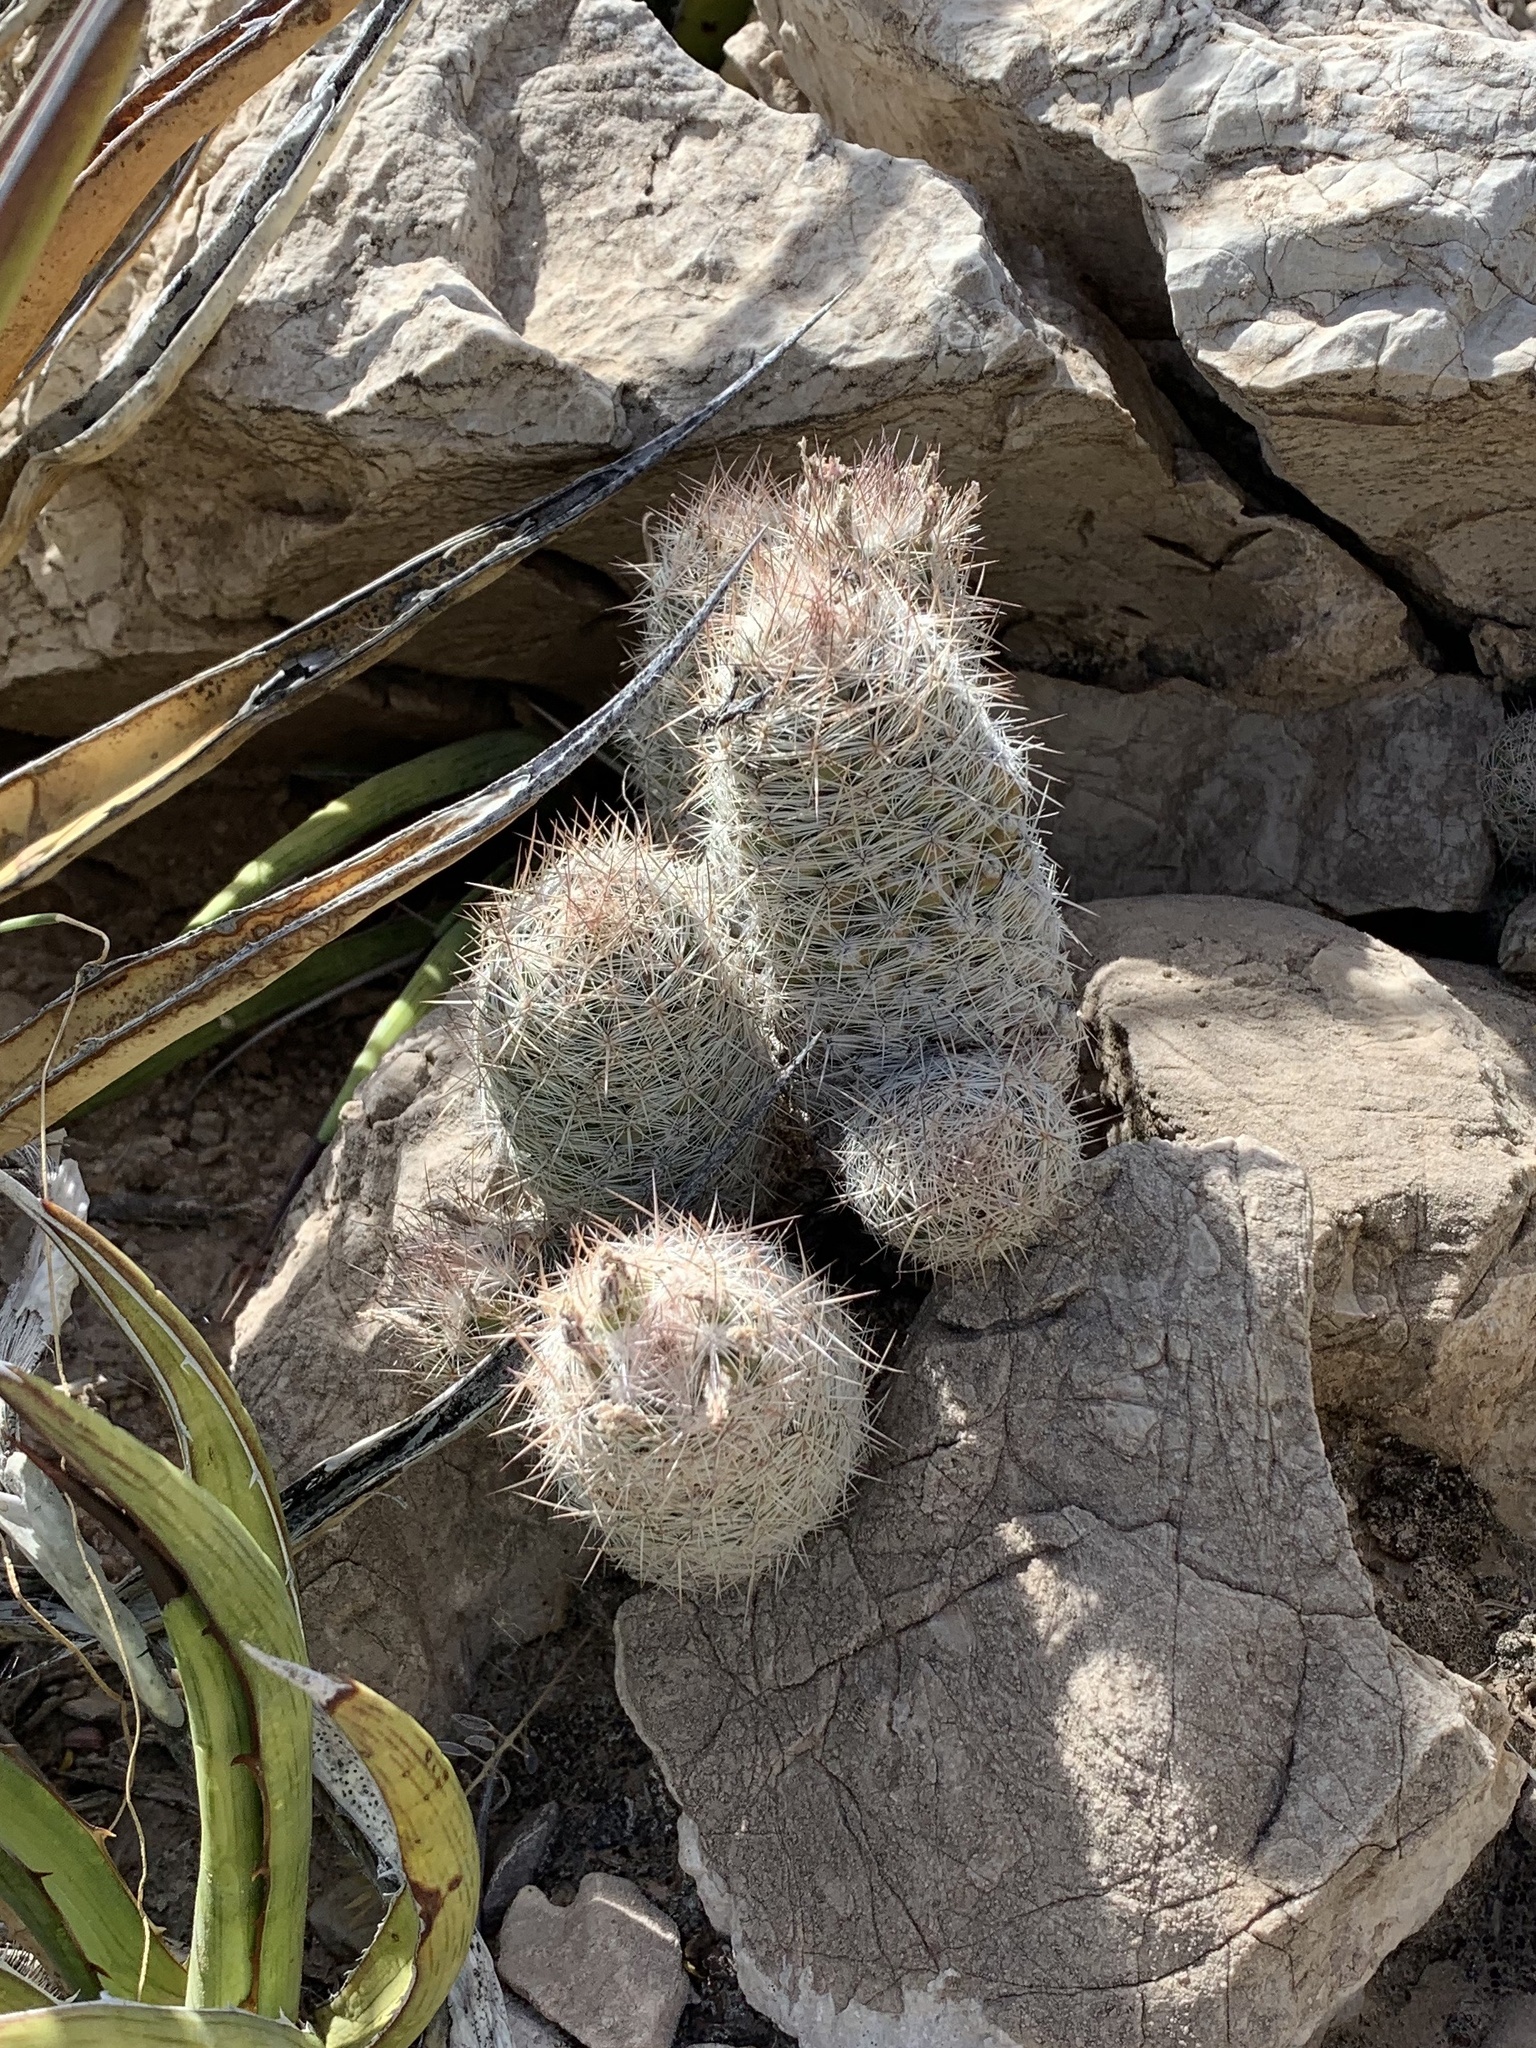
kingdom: Plantae
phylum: Tracheophyta
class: Magnoliopsida
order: Caryophyllales
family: Cactaceae
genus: Pelecyphora
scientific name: Pelecyphora tuberculosa
